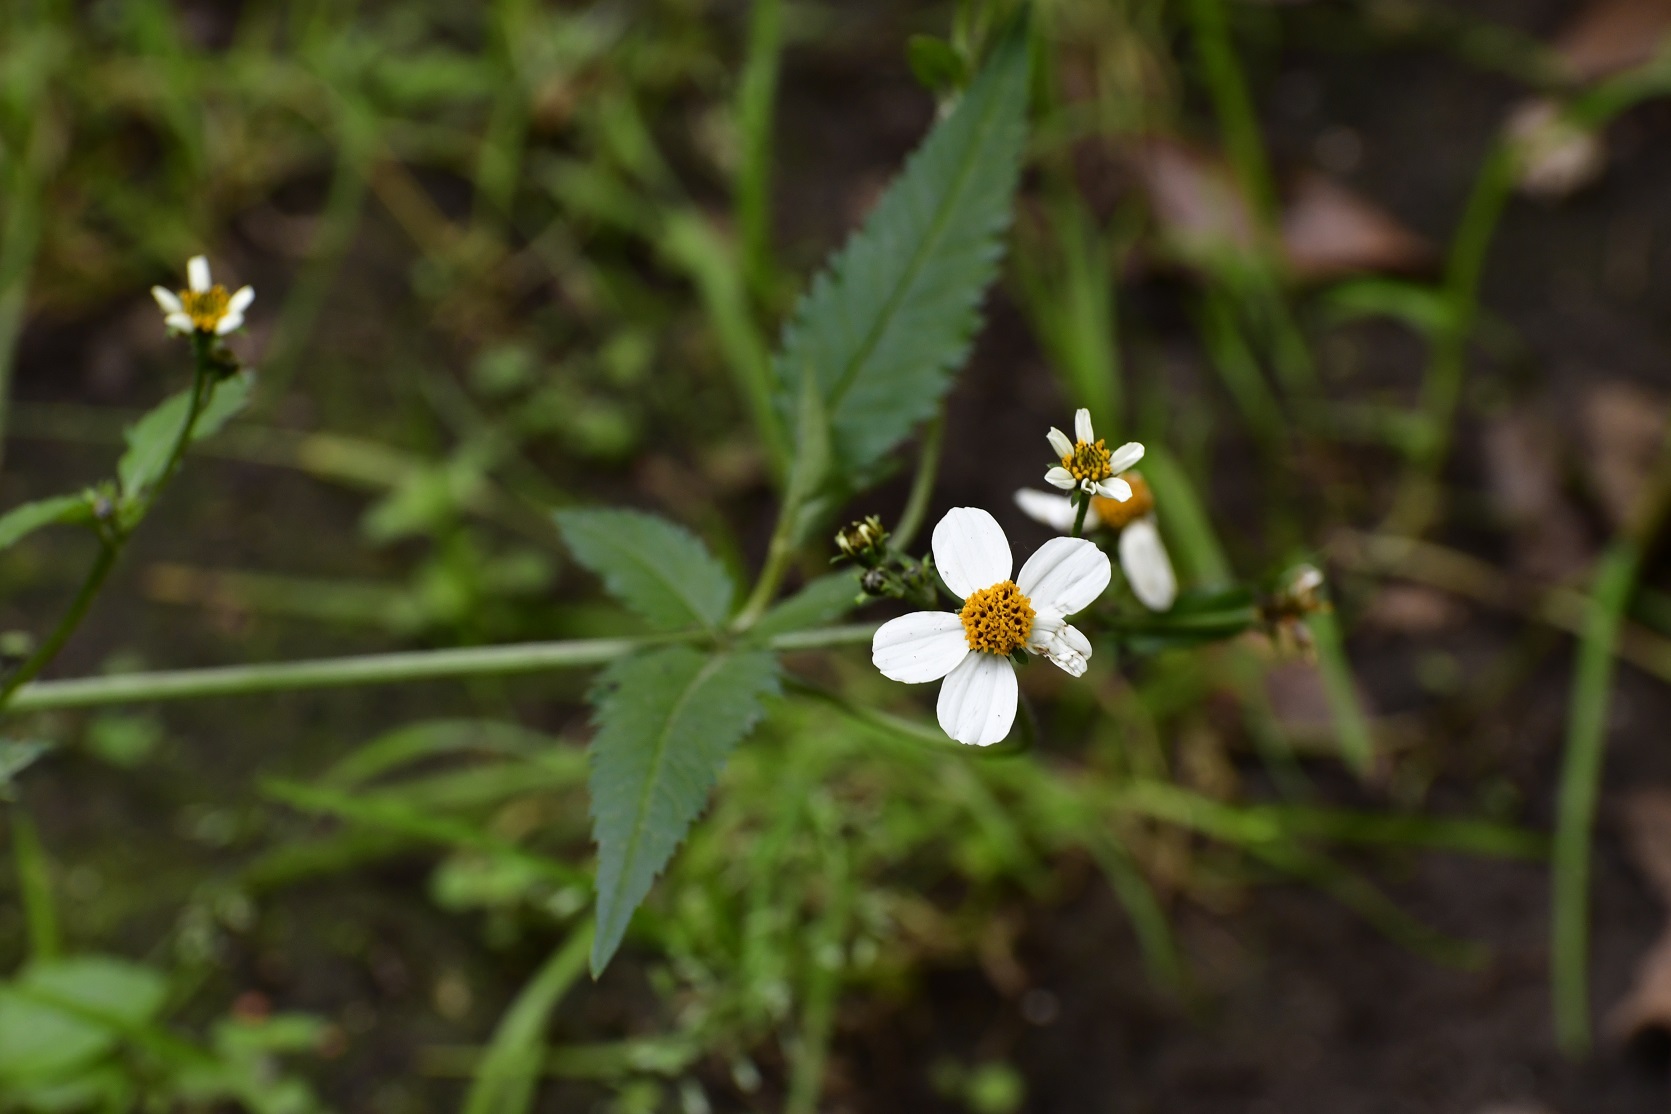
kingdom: Plantae
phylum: Tracheophyta
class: Magnoliopsida
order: Asterales
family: Asteraceae
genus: Bidens
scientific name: Bidens odorata
